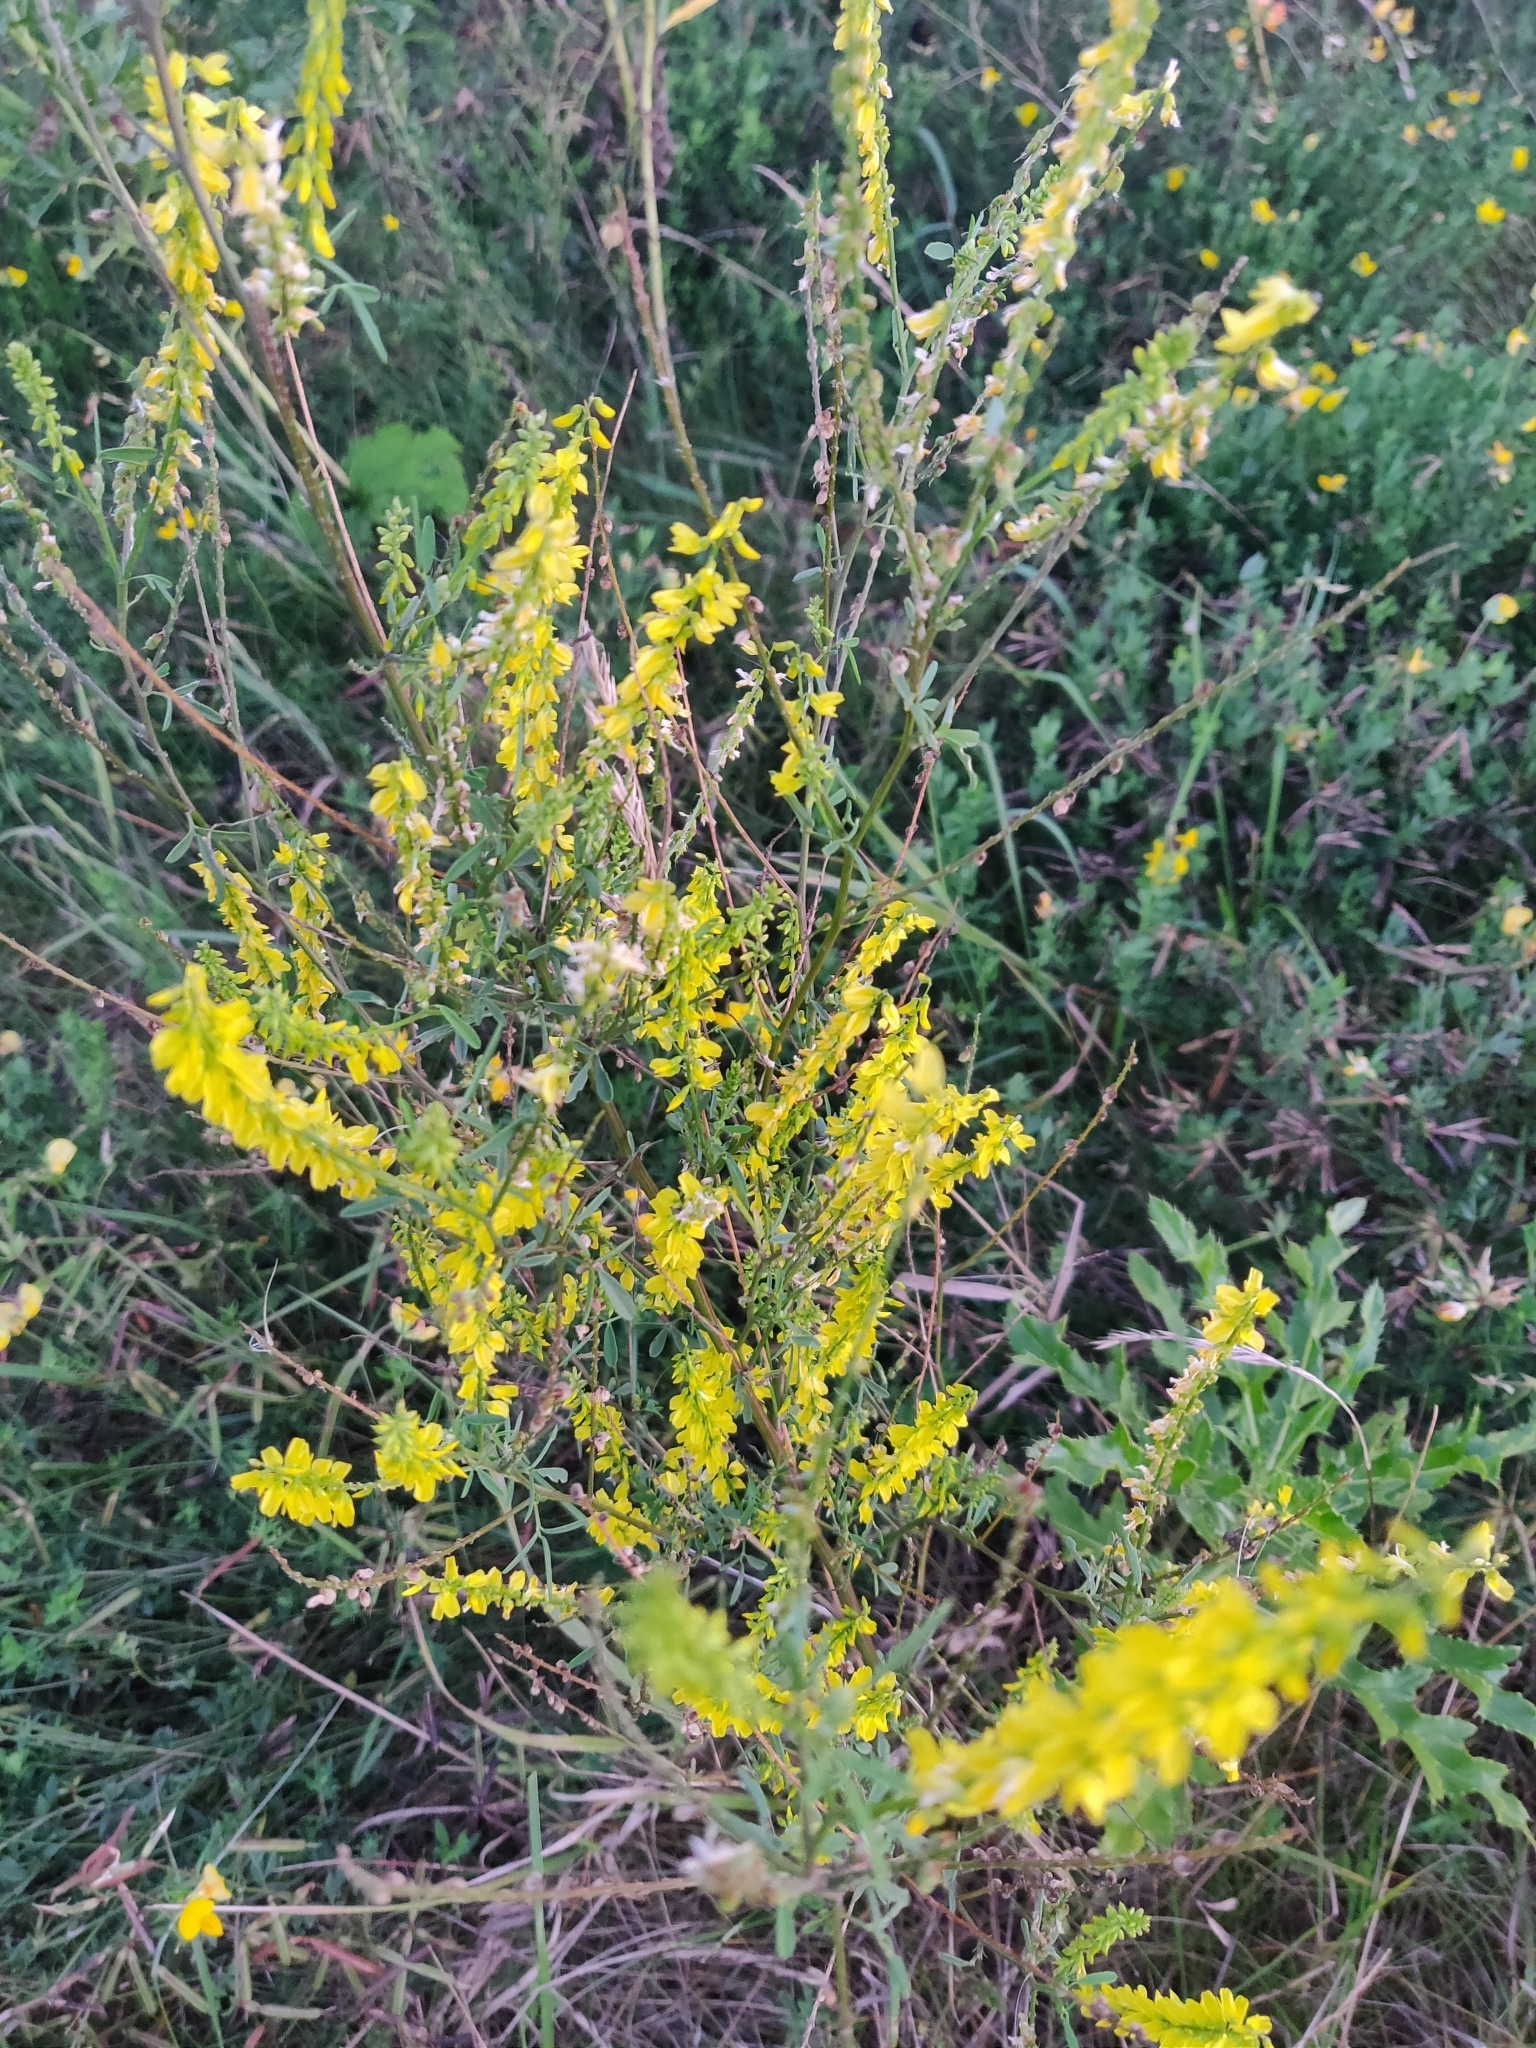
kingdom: Plantae
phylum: Tracheophyta
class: Magnoliopsida
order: Fabales
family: Fabaceae
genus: Melilotus
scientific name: Melilotus officinalis
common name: Sweetclover
